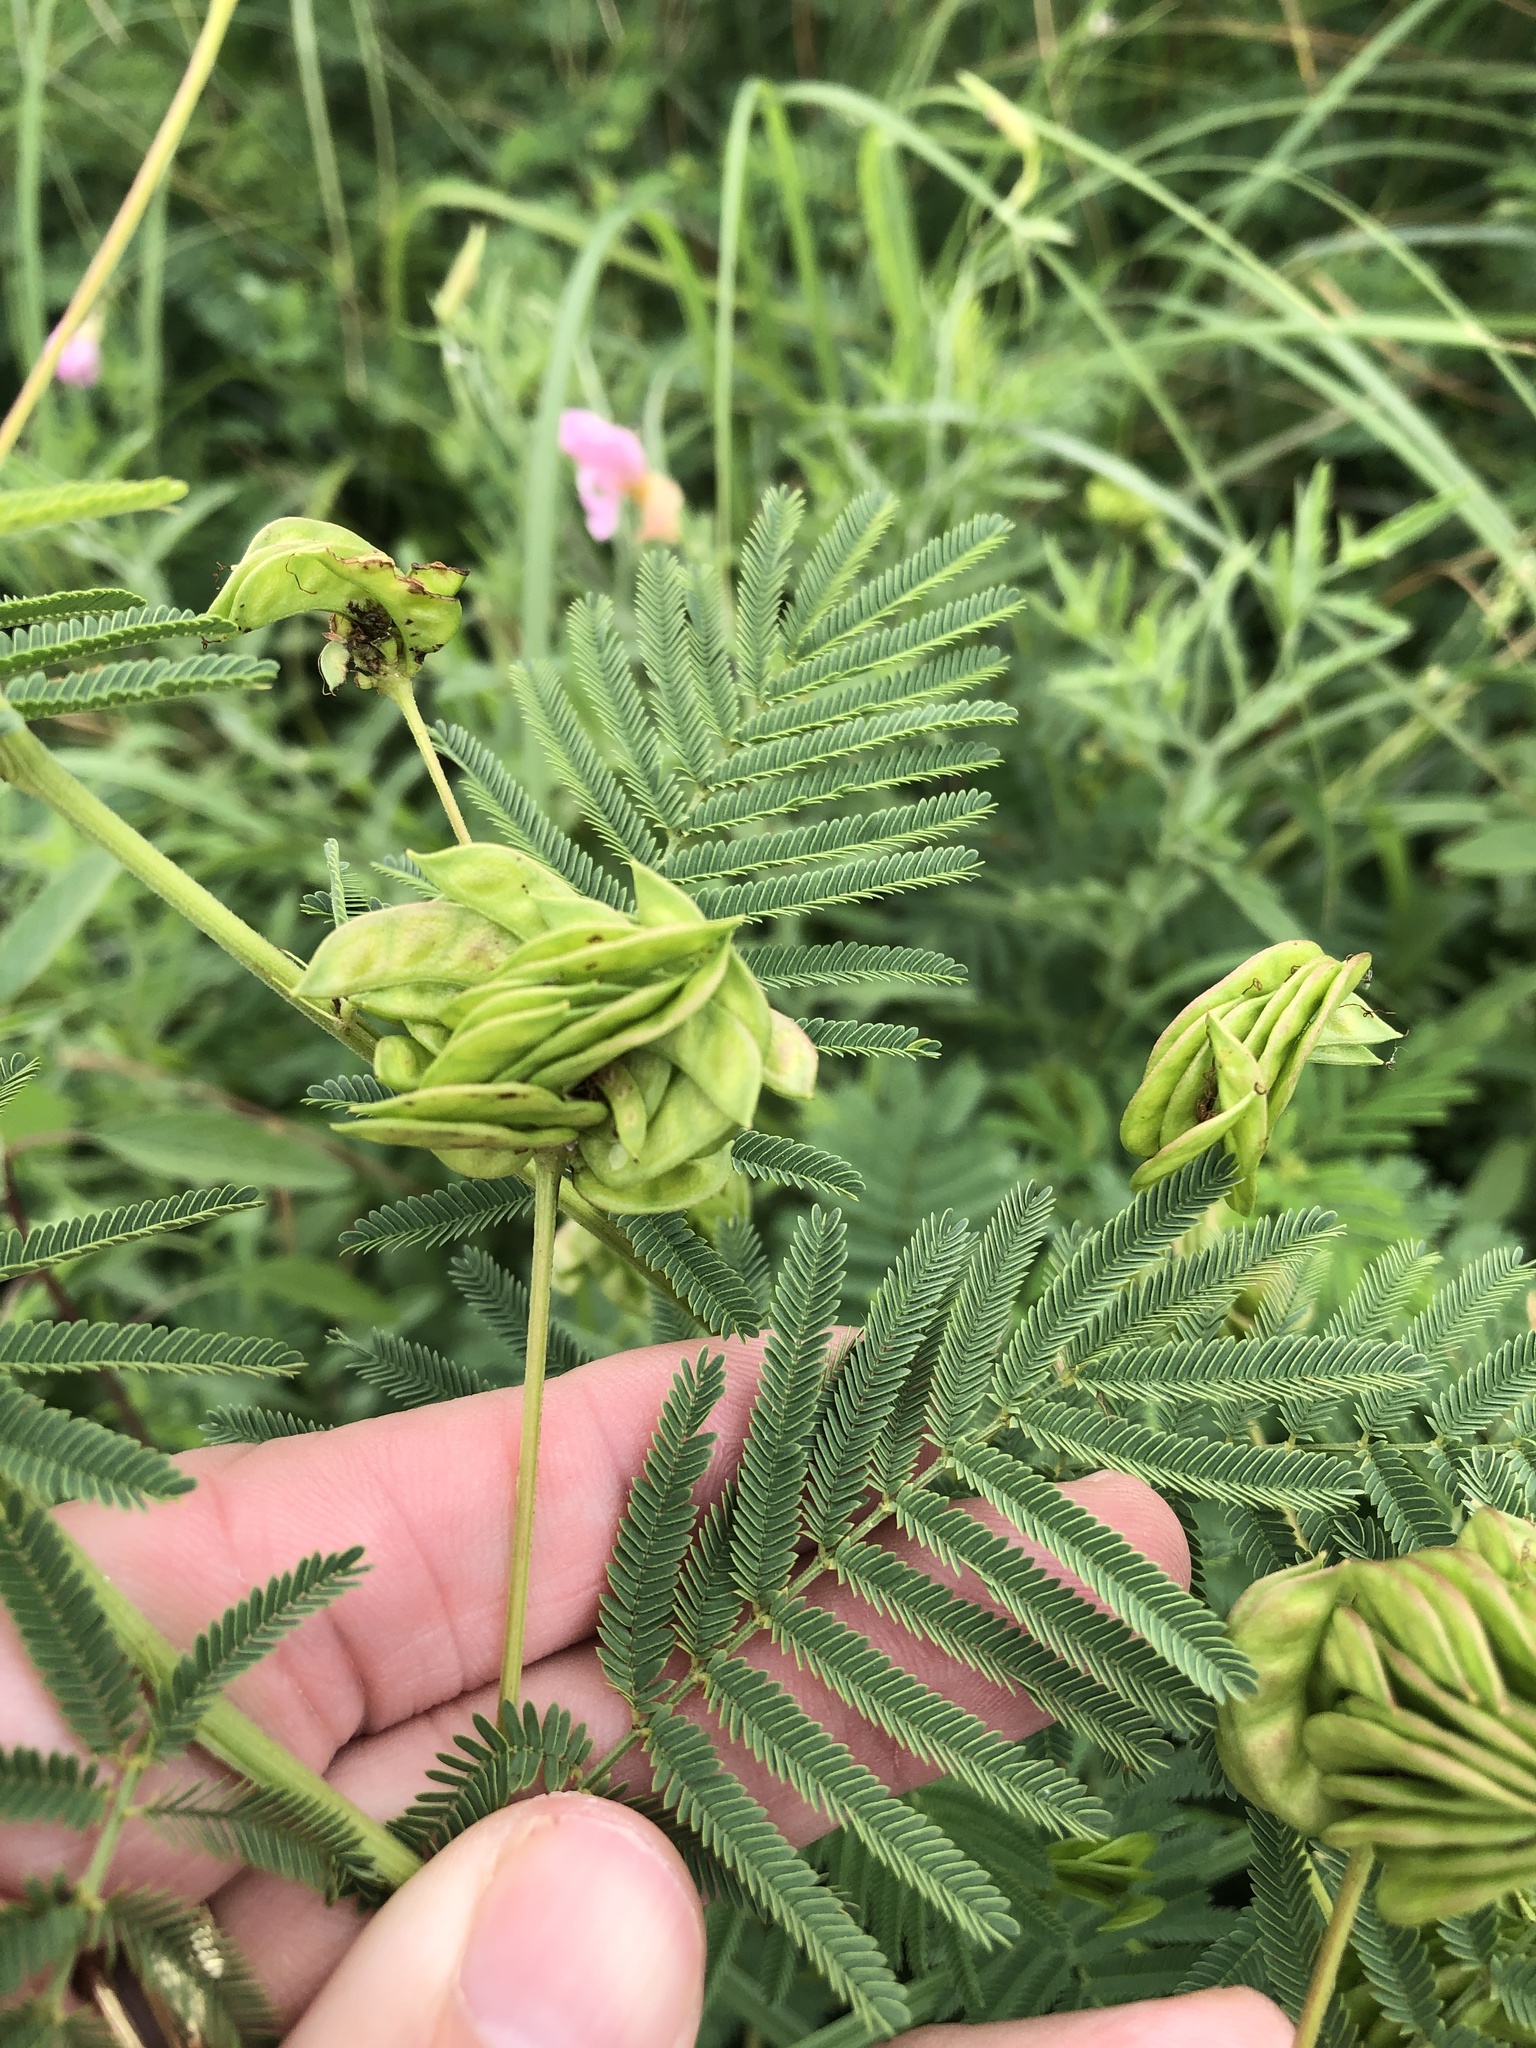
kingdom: Plantae
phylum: Tracheophyta
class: Magnoliopsida
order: Fabales
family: Fabaceae
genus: Desmanthus
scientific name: Desmanthus illinoensis
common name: Illinois bundle-flower
